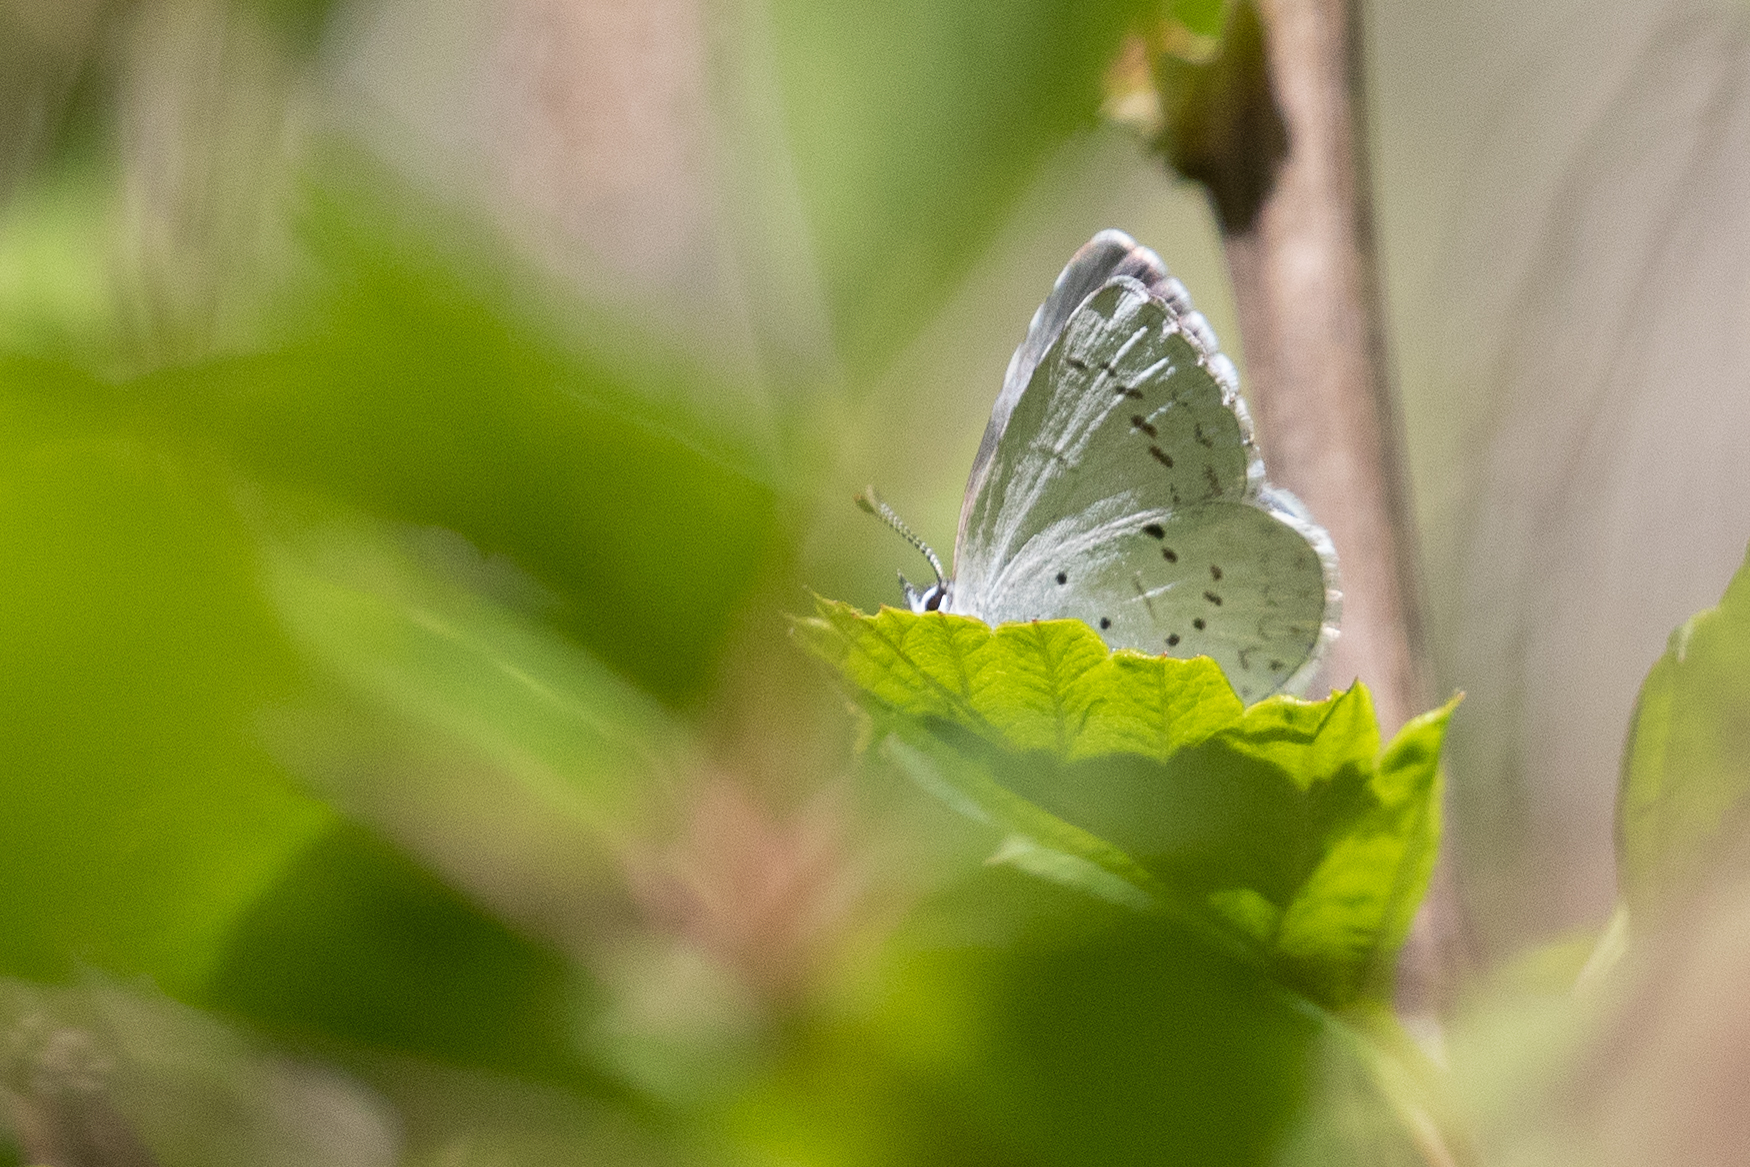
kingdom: Animalia
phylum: Arthropoda
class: Insecta
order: Lepidoptera
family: Lycaenidae
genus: Celastrina
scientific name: Celastrina ladon
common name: Spring azure
